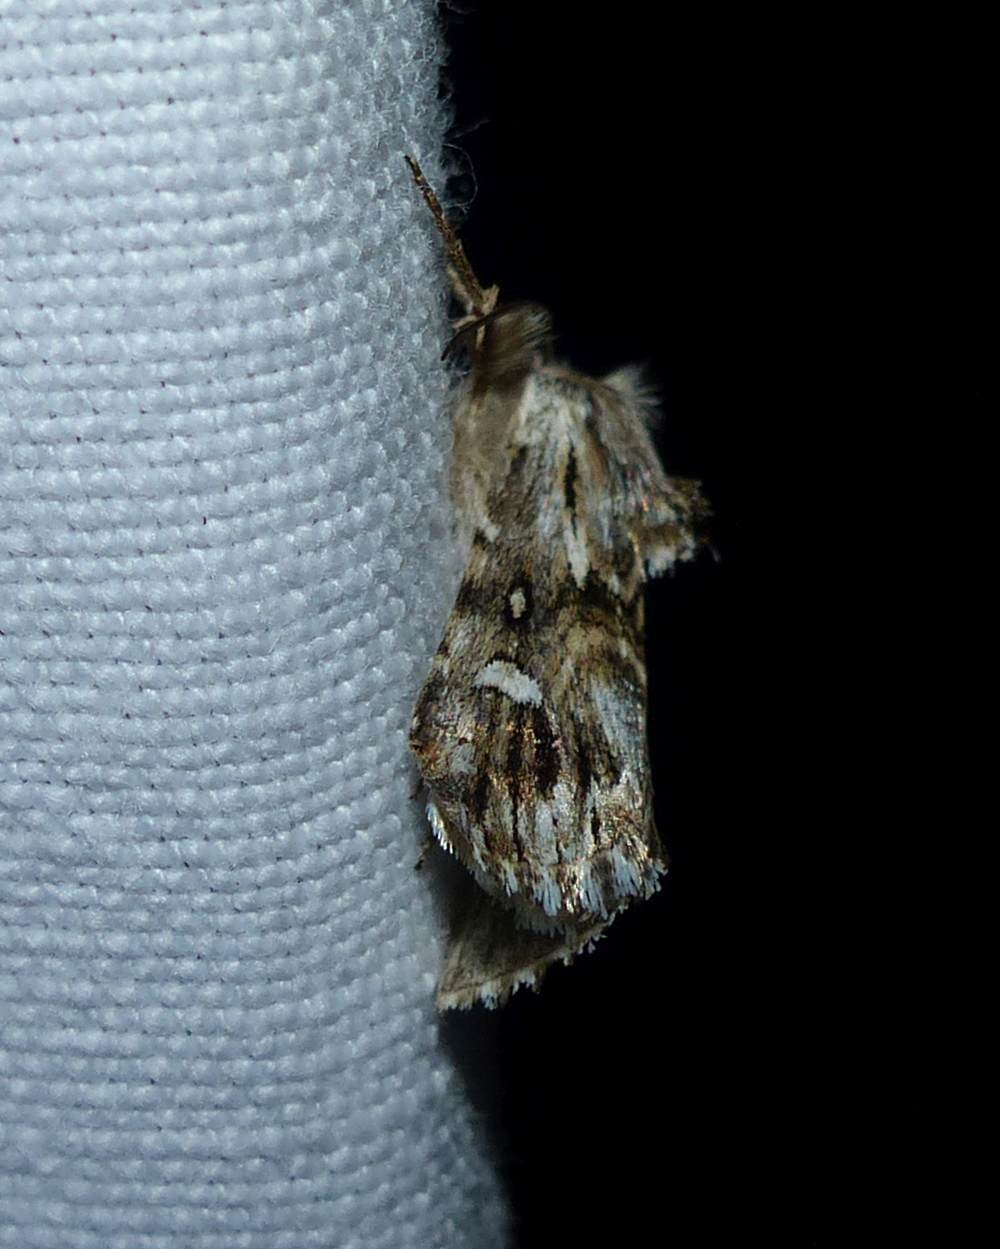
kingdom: Animalia
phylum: Arthropoda
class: Insecta
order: Lepidoptera
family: Noctuidae
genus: Calophasia
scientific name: Calophasia lunula
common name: Toadflax brocade
